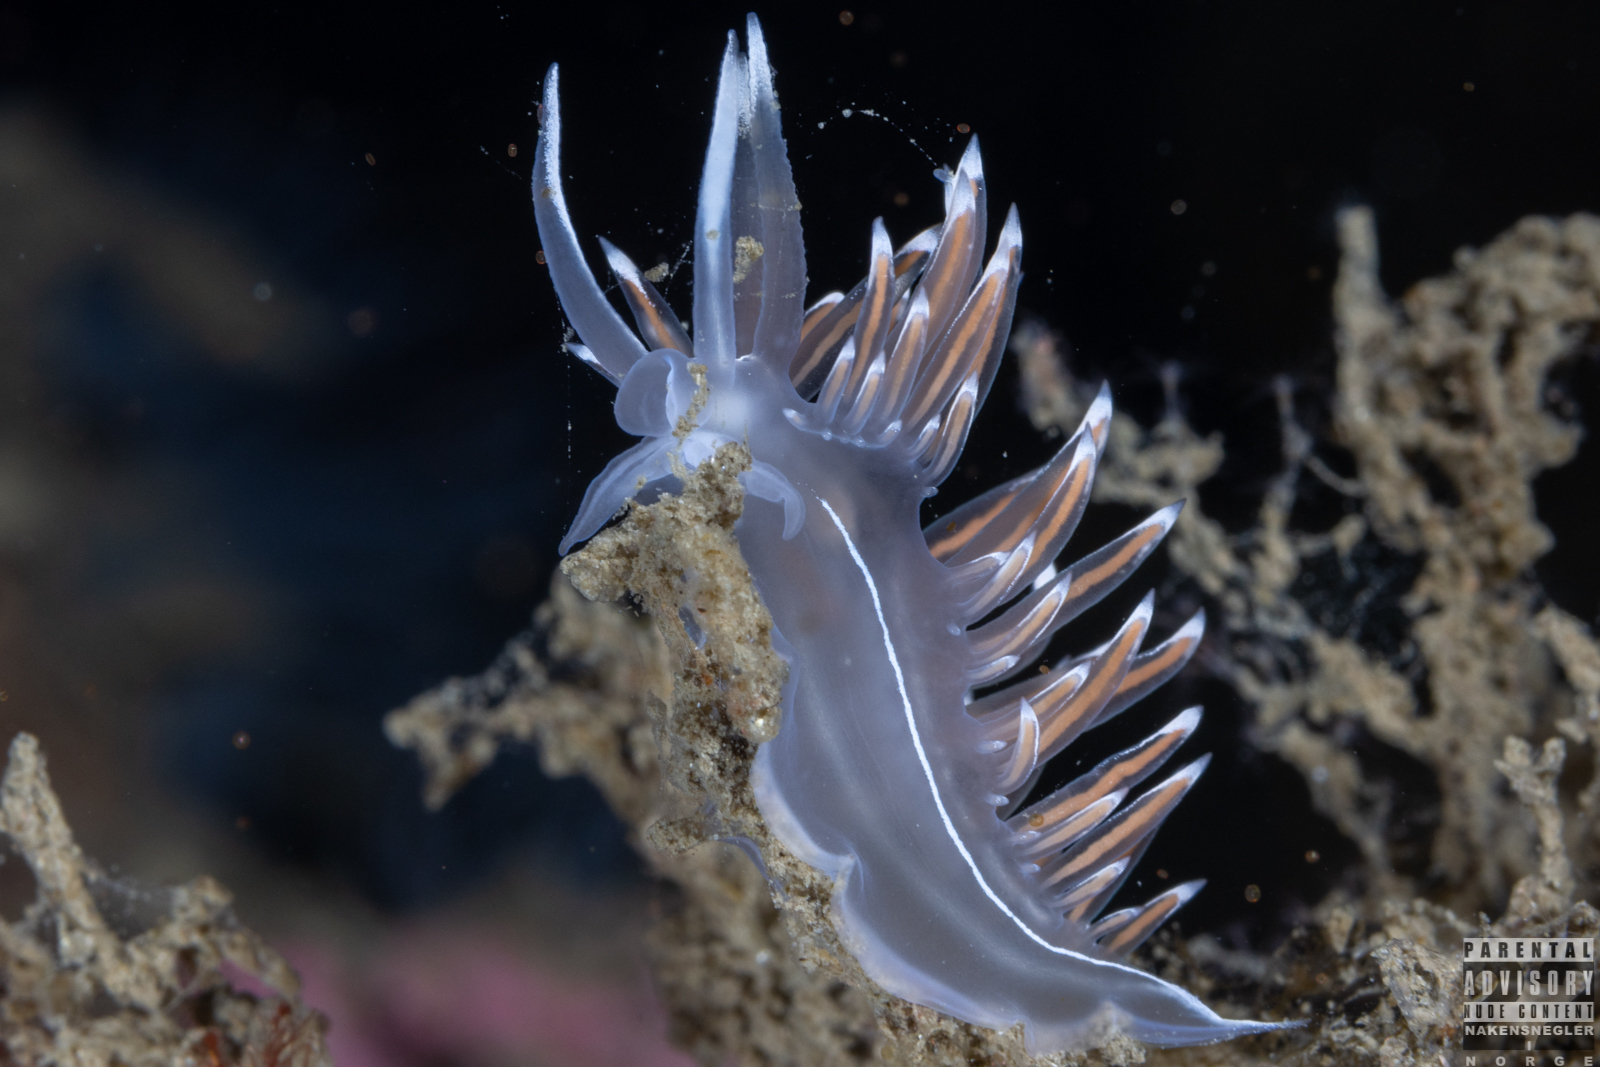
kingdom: Animalia
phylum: Mollusca
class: Gastropoda
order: Nudibranchia
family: Coryphellidae
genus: Coryphella
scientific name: Coryphella lineata
